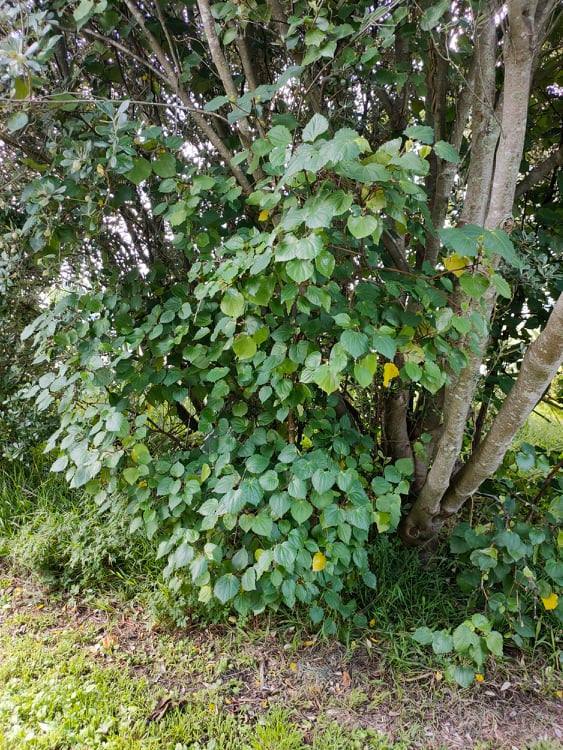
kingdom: Plantae
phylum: Tracheophyta
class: Magnoliopsida
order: Piperales
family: Piperaceae
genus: Macropiper
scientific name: Macropiper excelsum
